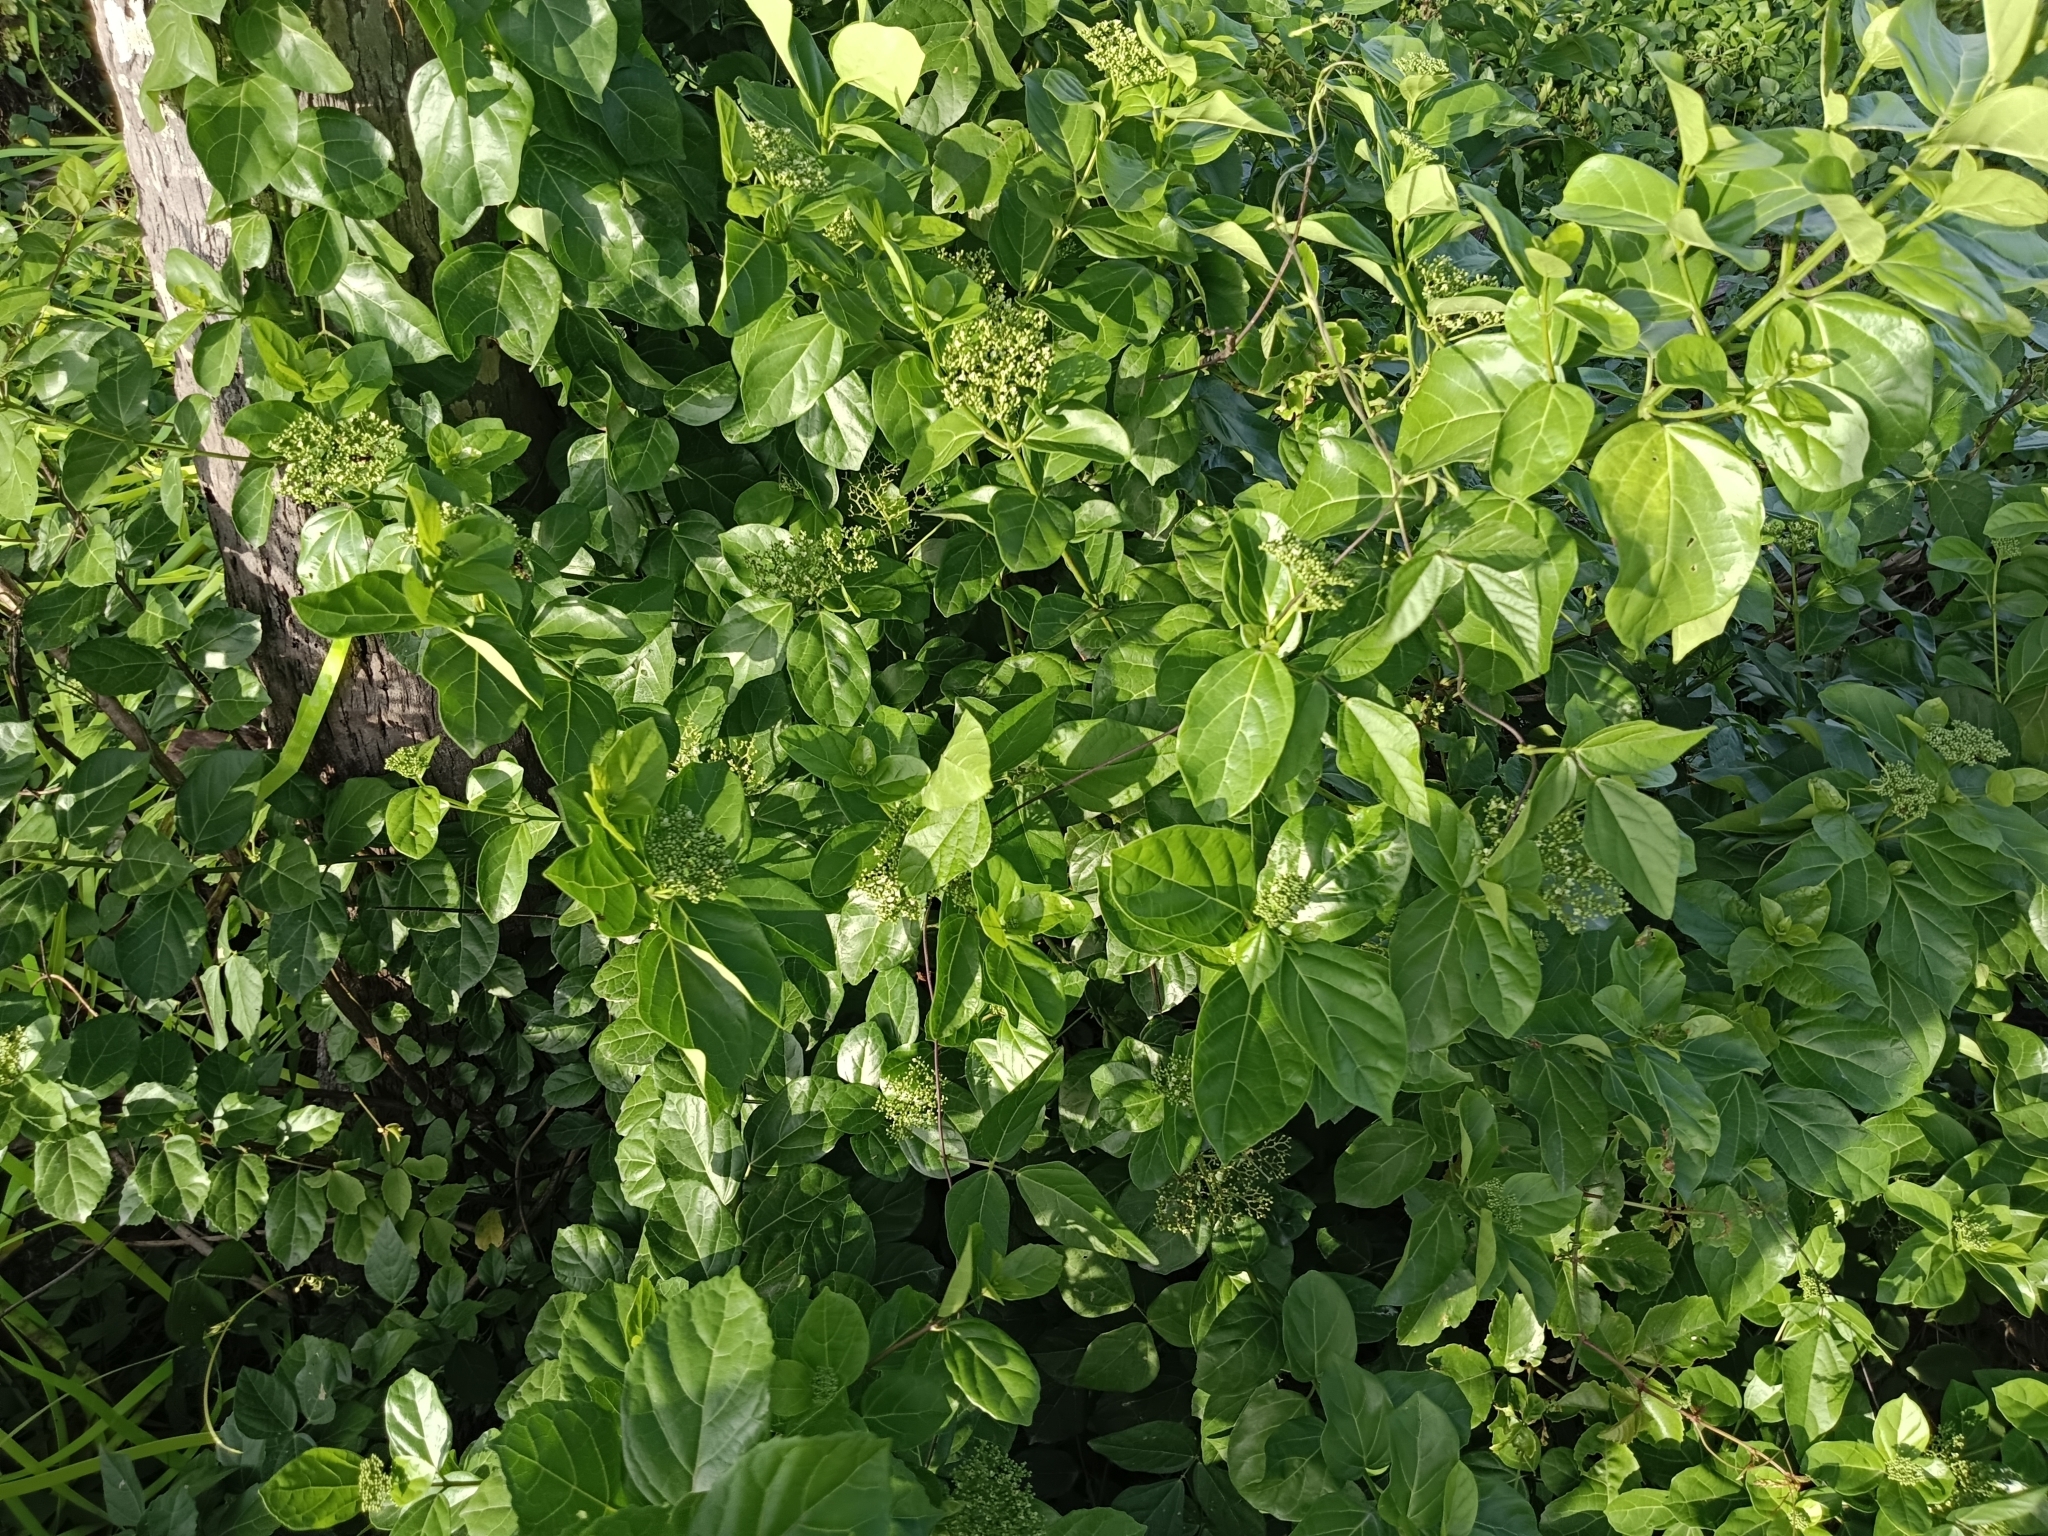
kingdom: Plantae
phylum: Tracheophyta
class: Magnoliopsida
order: Lamiales
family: Lamiaceae
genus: Premna
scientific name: Premna serratifolia
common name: Bastard guelder
